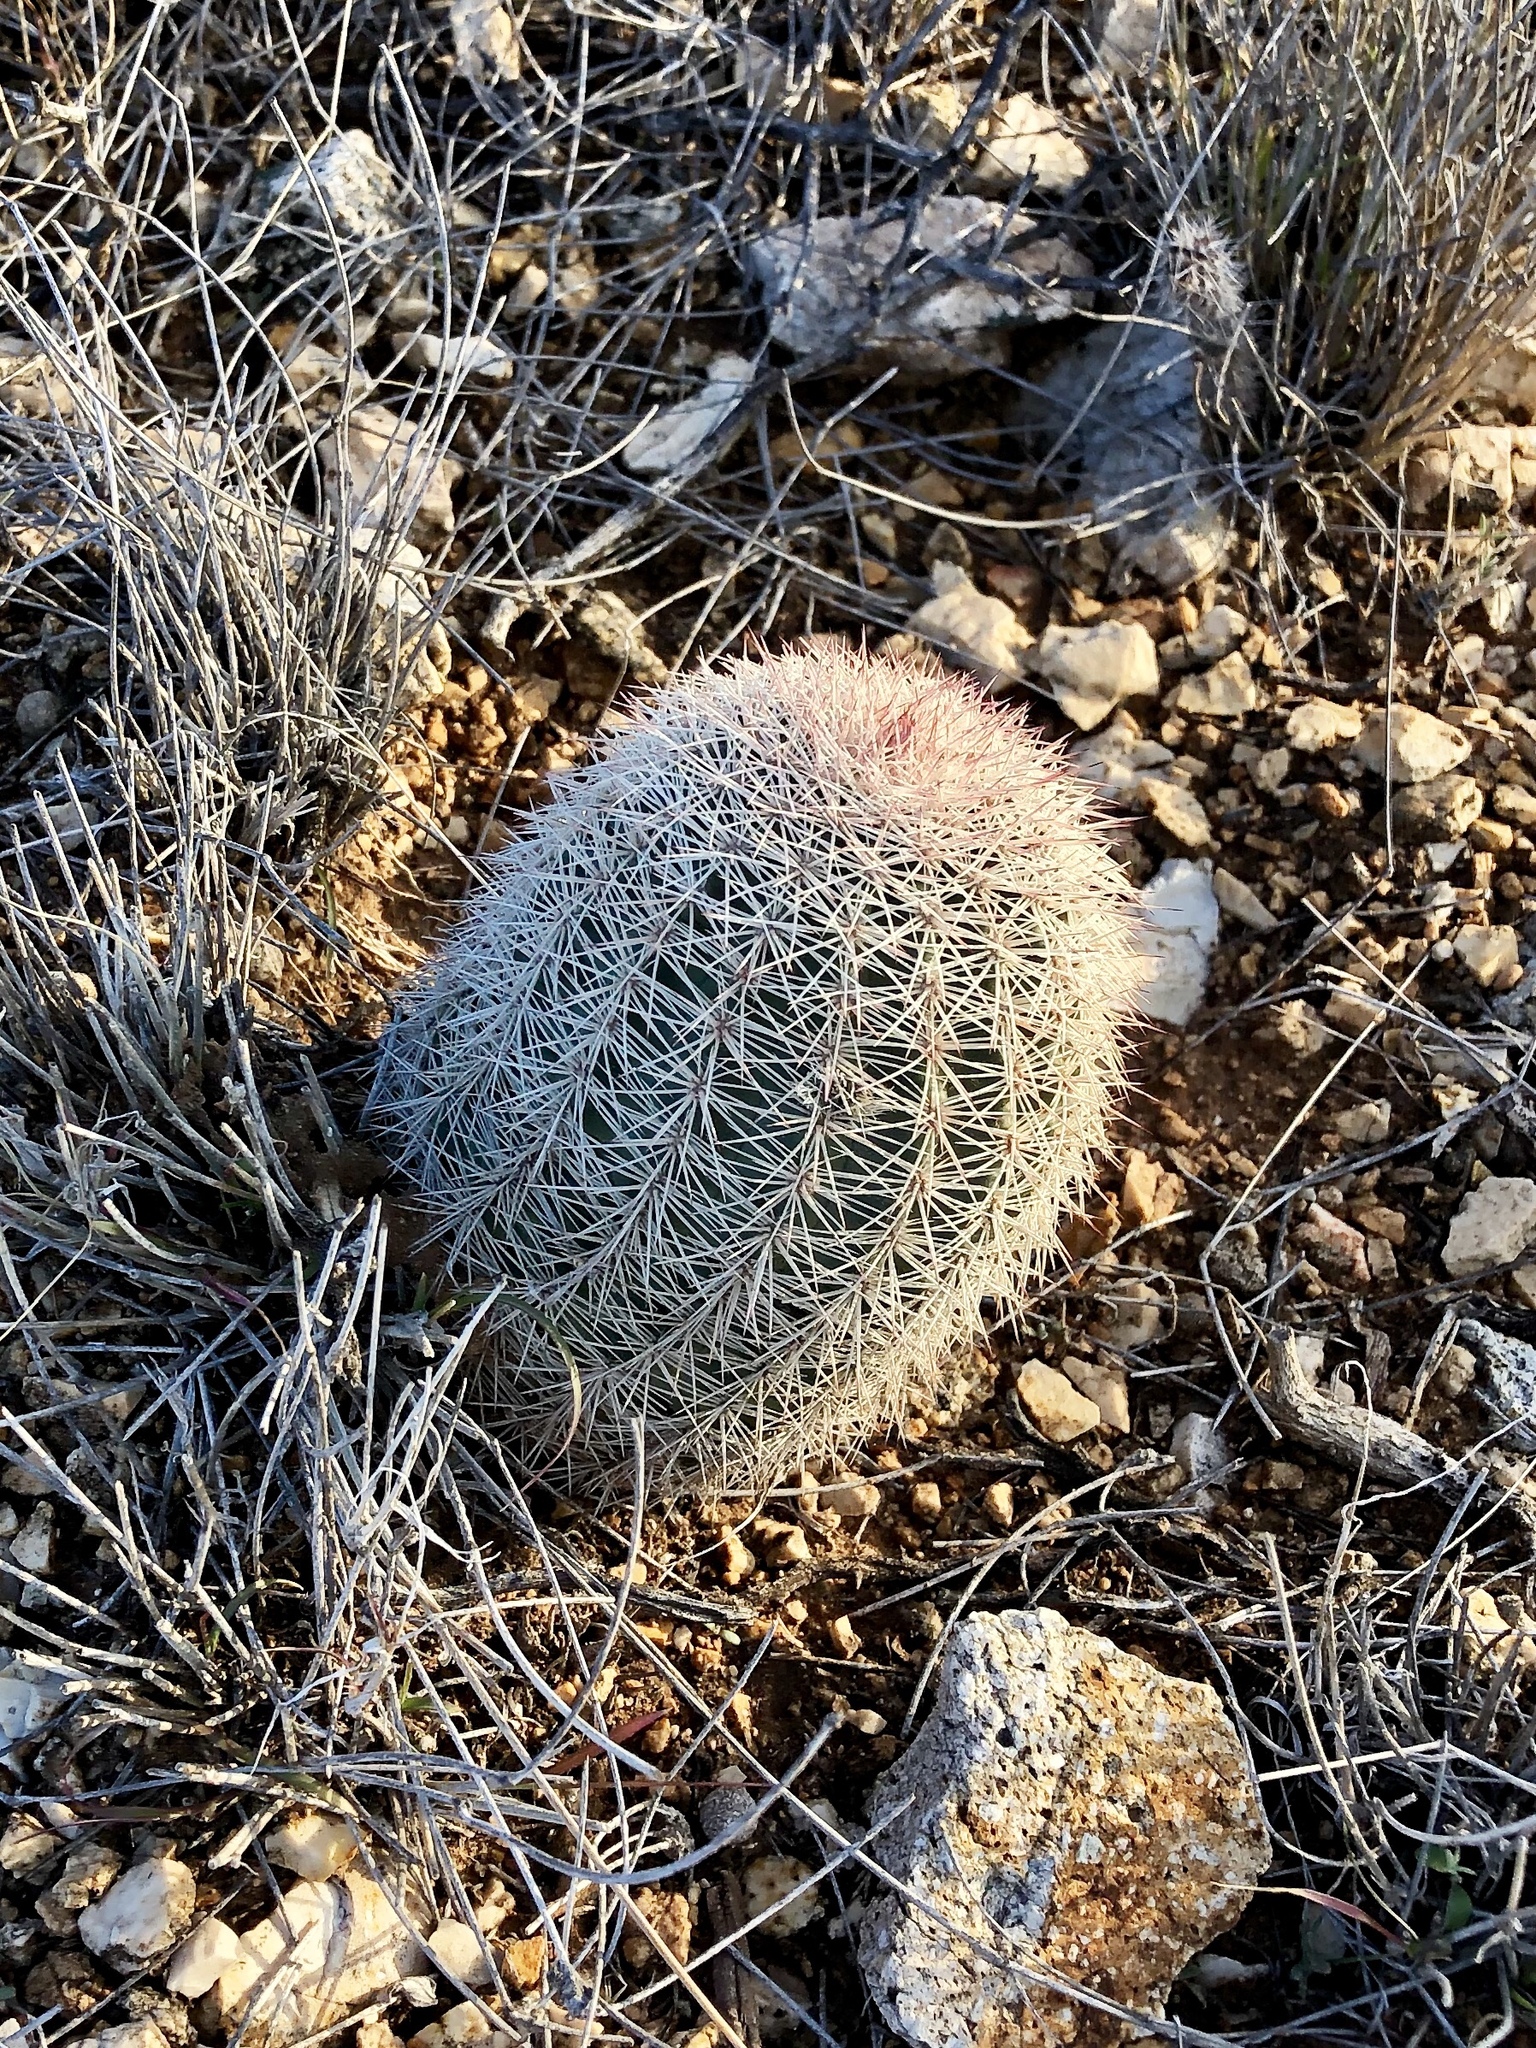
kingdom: Plantae
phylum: Tracheophyta
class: Magnoliopsida
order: Caryophyllales
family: Cactaceae
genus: Echinocereus
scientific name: Echinocereus dasyacanthus
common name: Spiny hedgehog cactus
